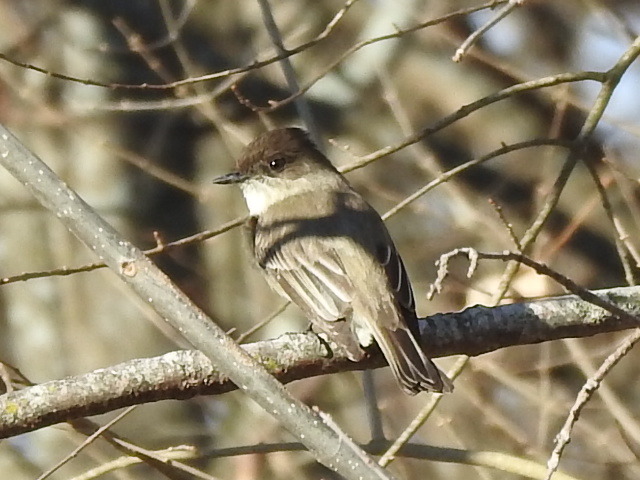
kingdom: Animalia
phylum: Chordata
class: Aves
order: Passeriformes
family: Tyrannidae
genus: Sayornis
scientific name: Sayornis phoebe
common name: Eastern phoebe
